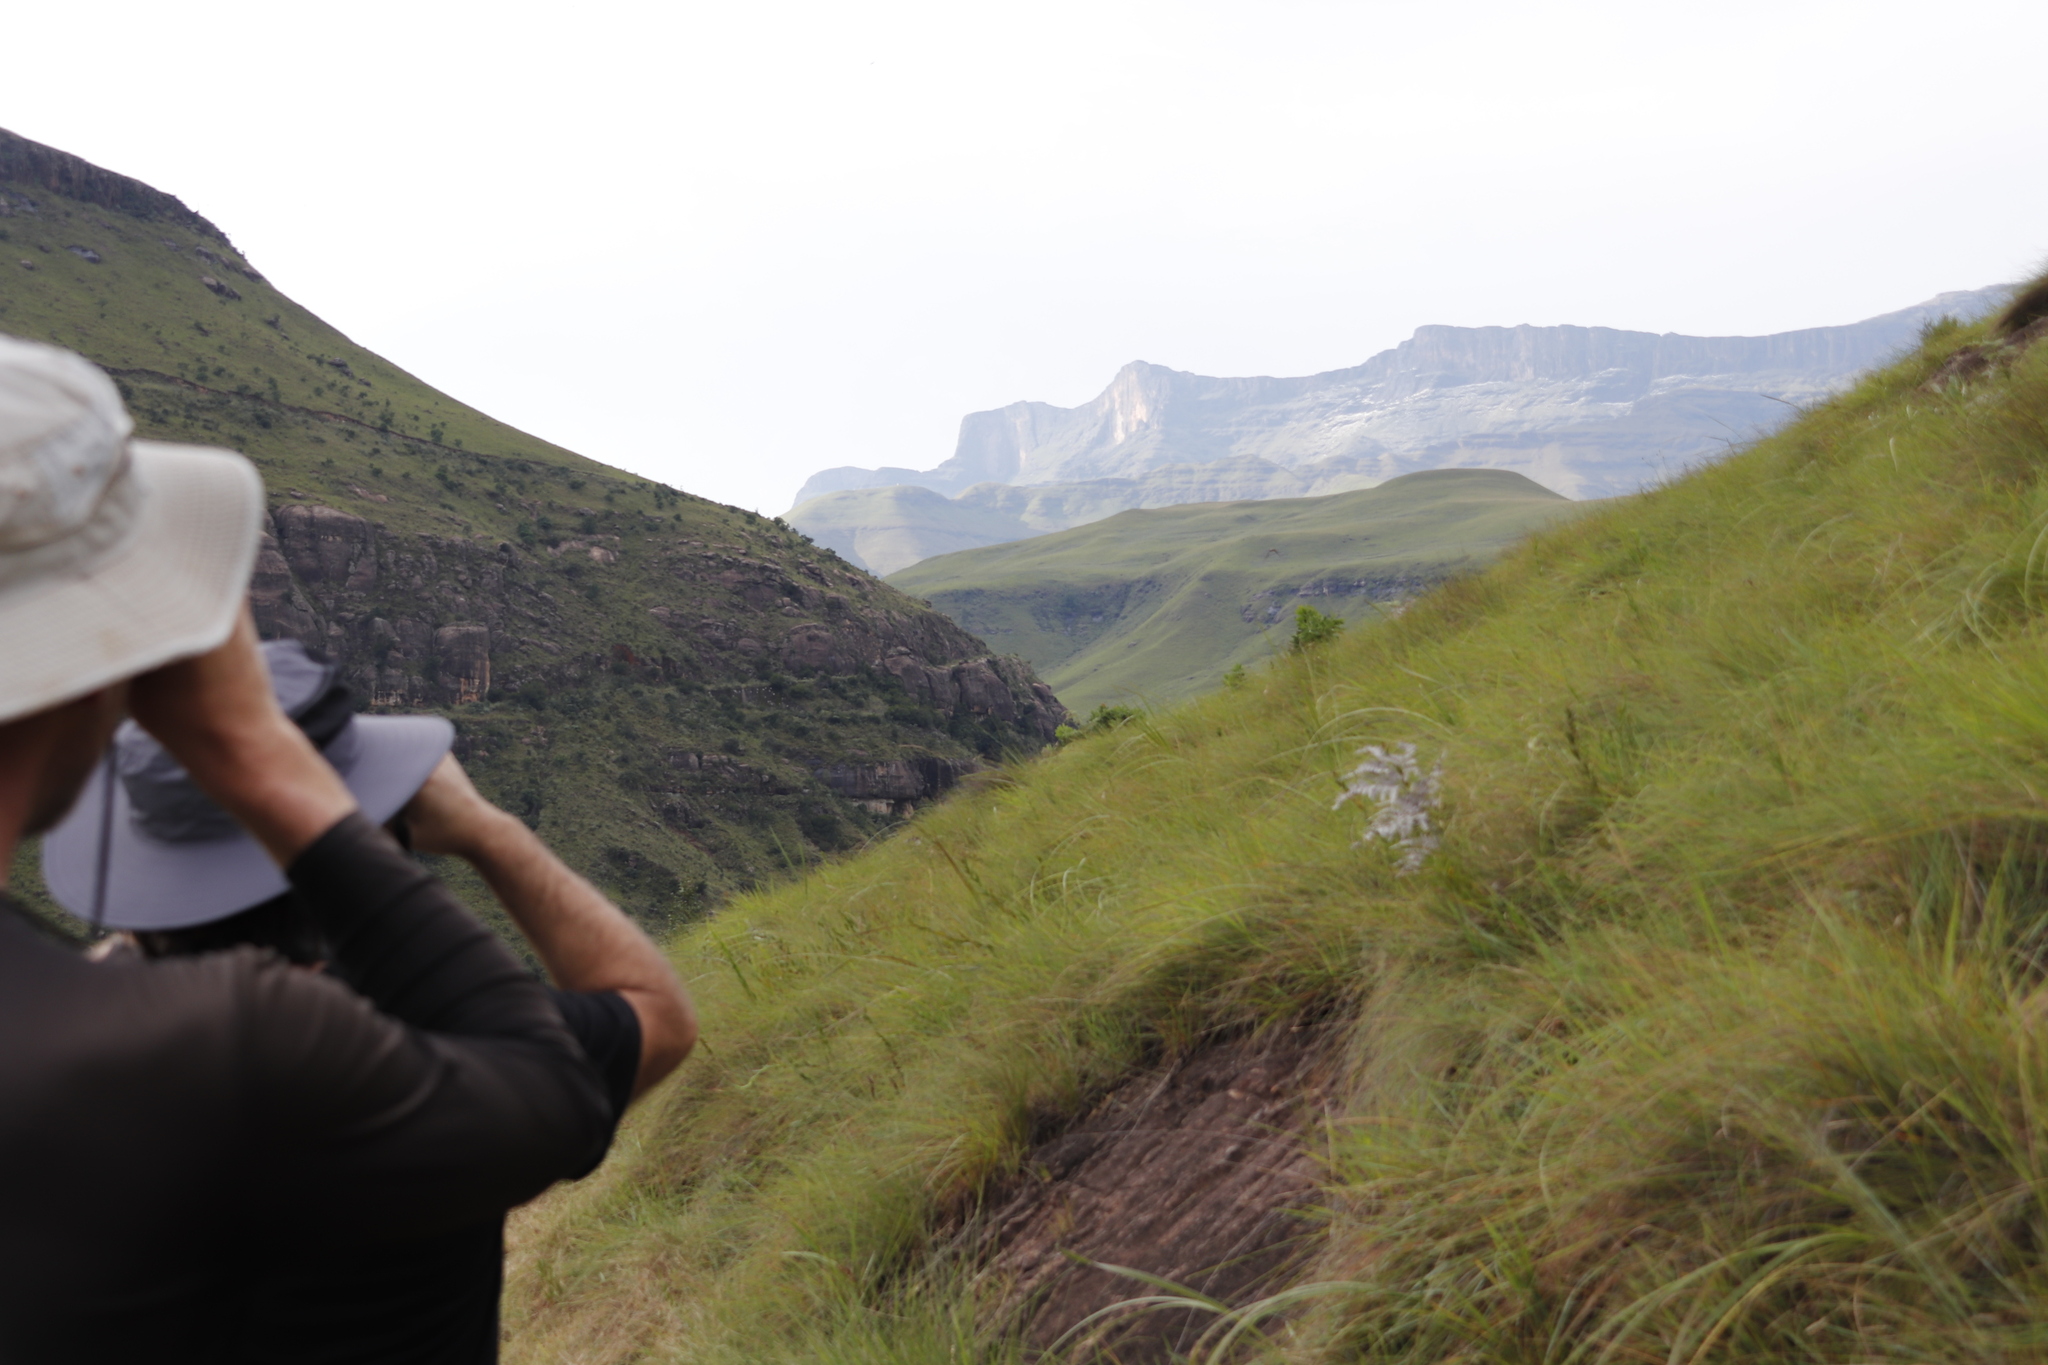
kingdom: Plantae
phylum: Tracheophyta
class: Polypodiopsida
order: Polypodiales
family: Dennstaedtiaceae
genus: Pteridium
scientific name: Pteridium aquilinum
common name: Bracken
